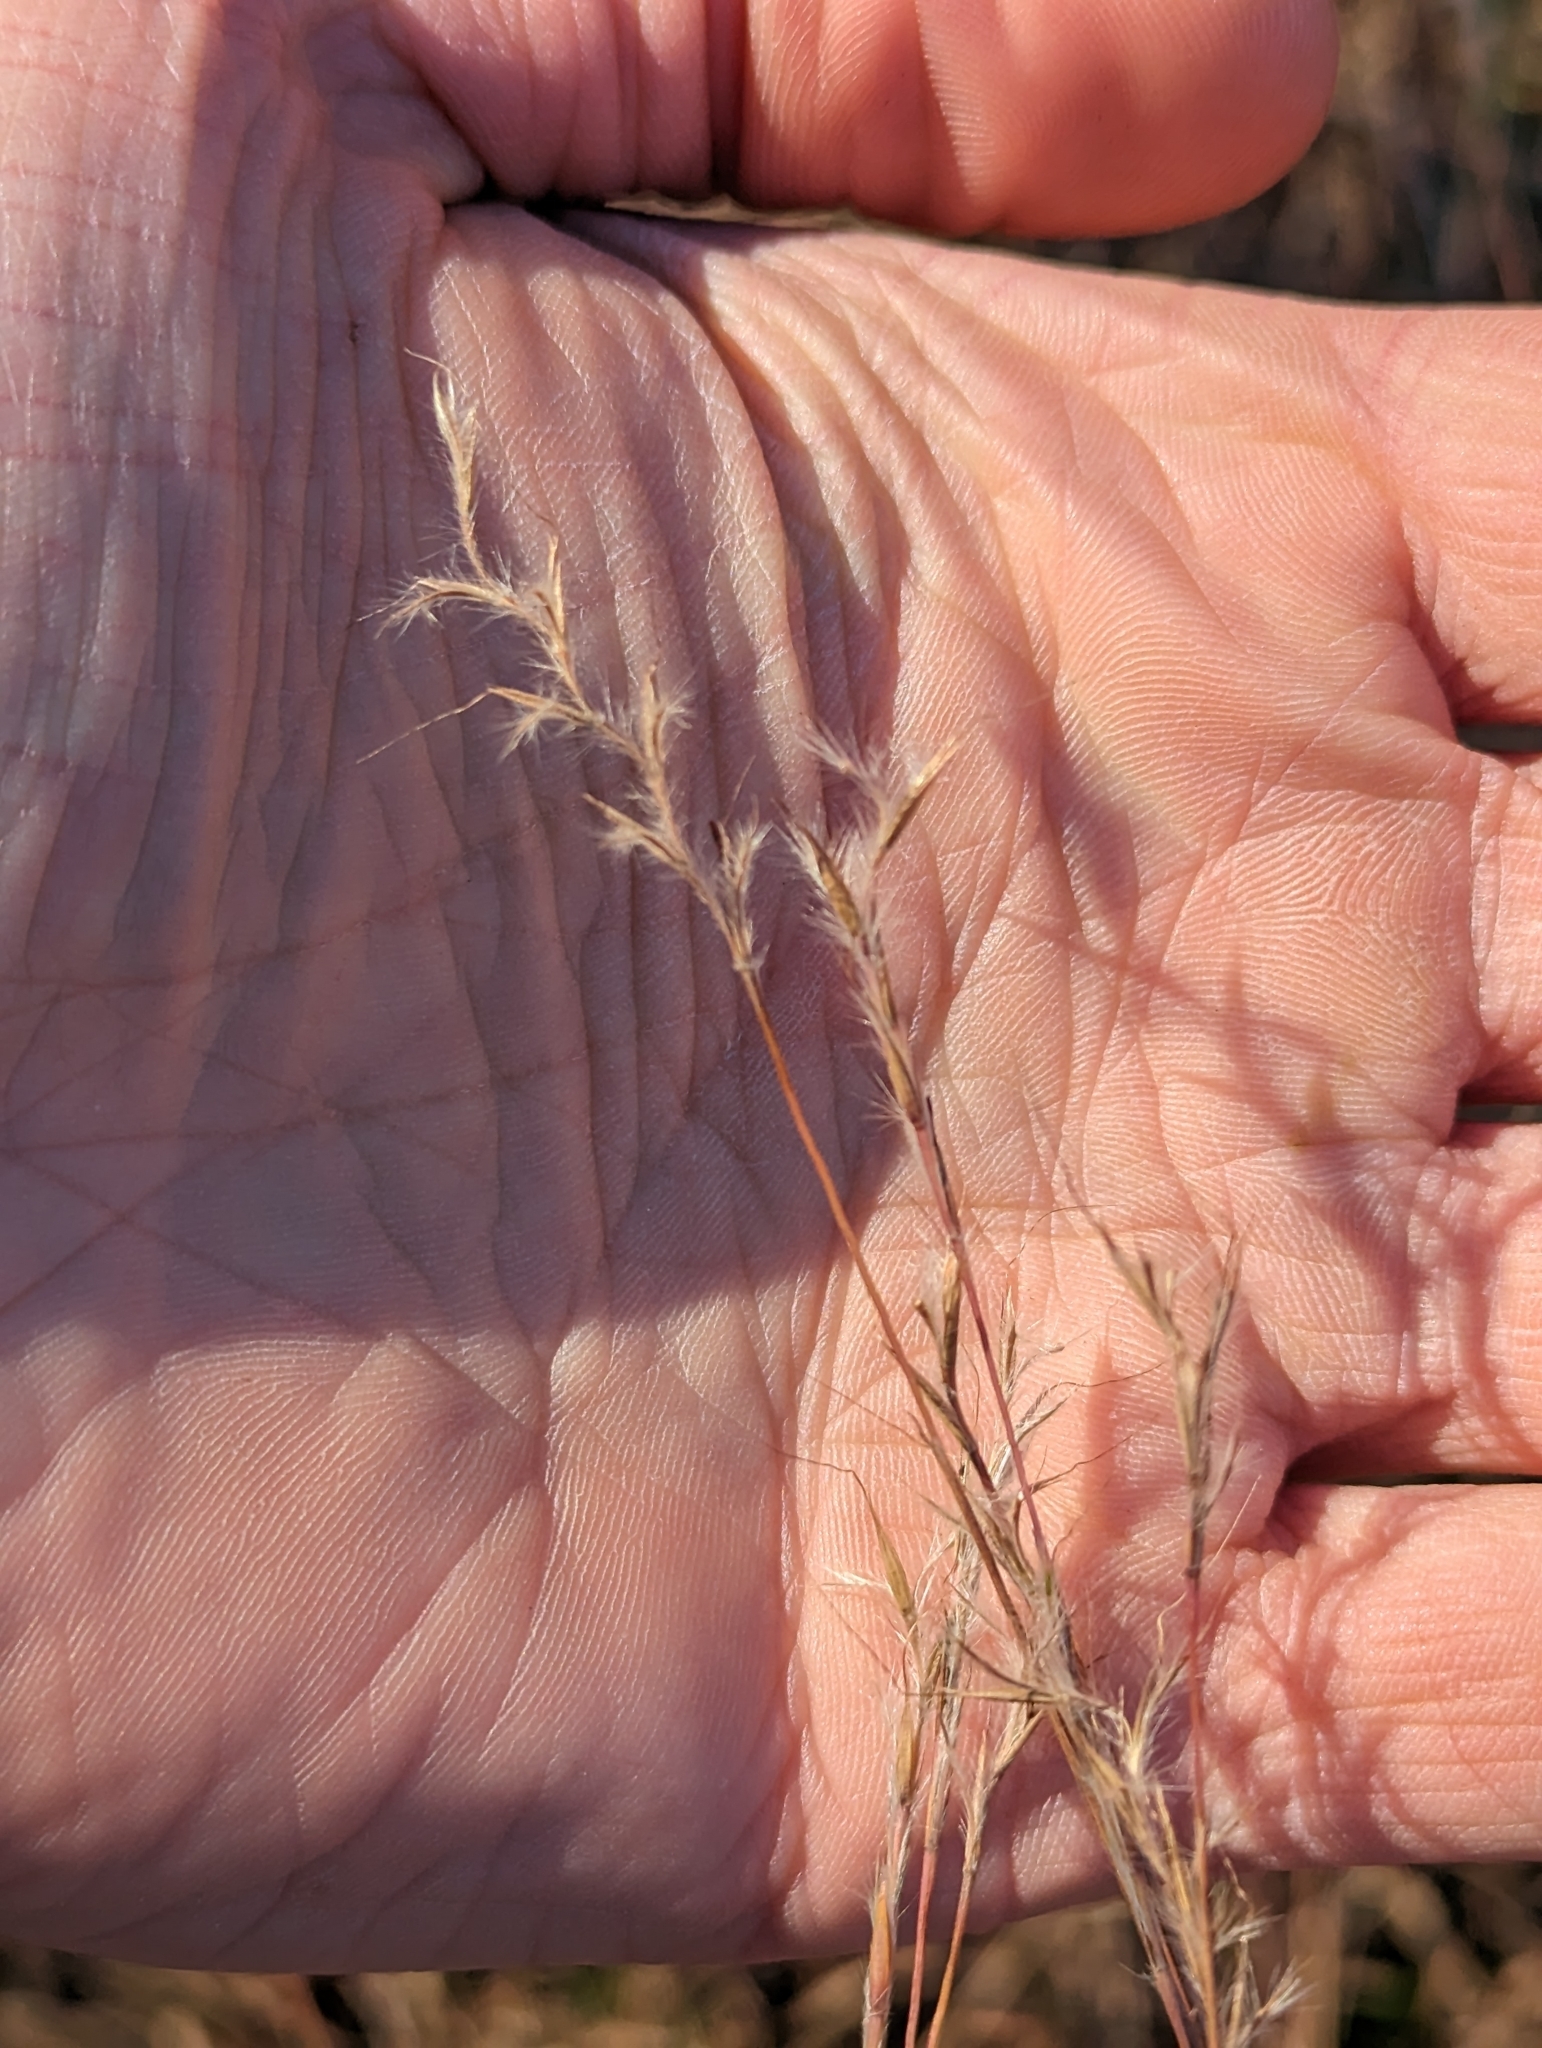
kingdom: Plantae
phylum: Tracheophyta
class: Liliopsida
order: Poales
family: Poaceae
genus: Schizachyrium
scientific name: Schizachyrium scoparium
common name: Little bluestem
